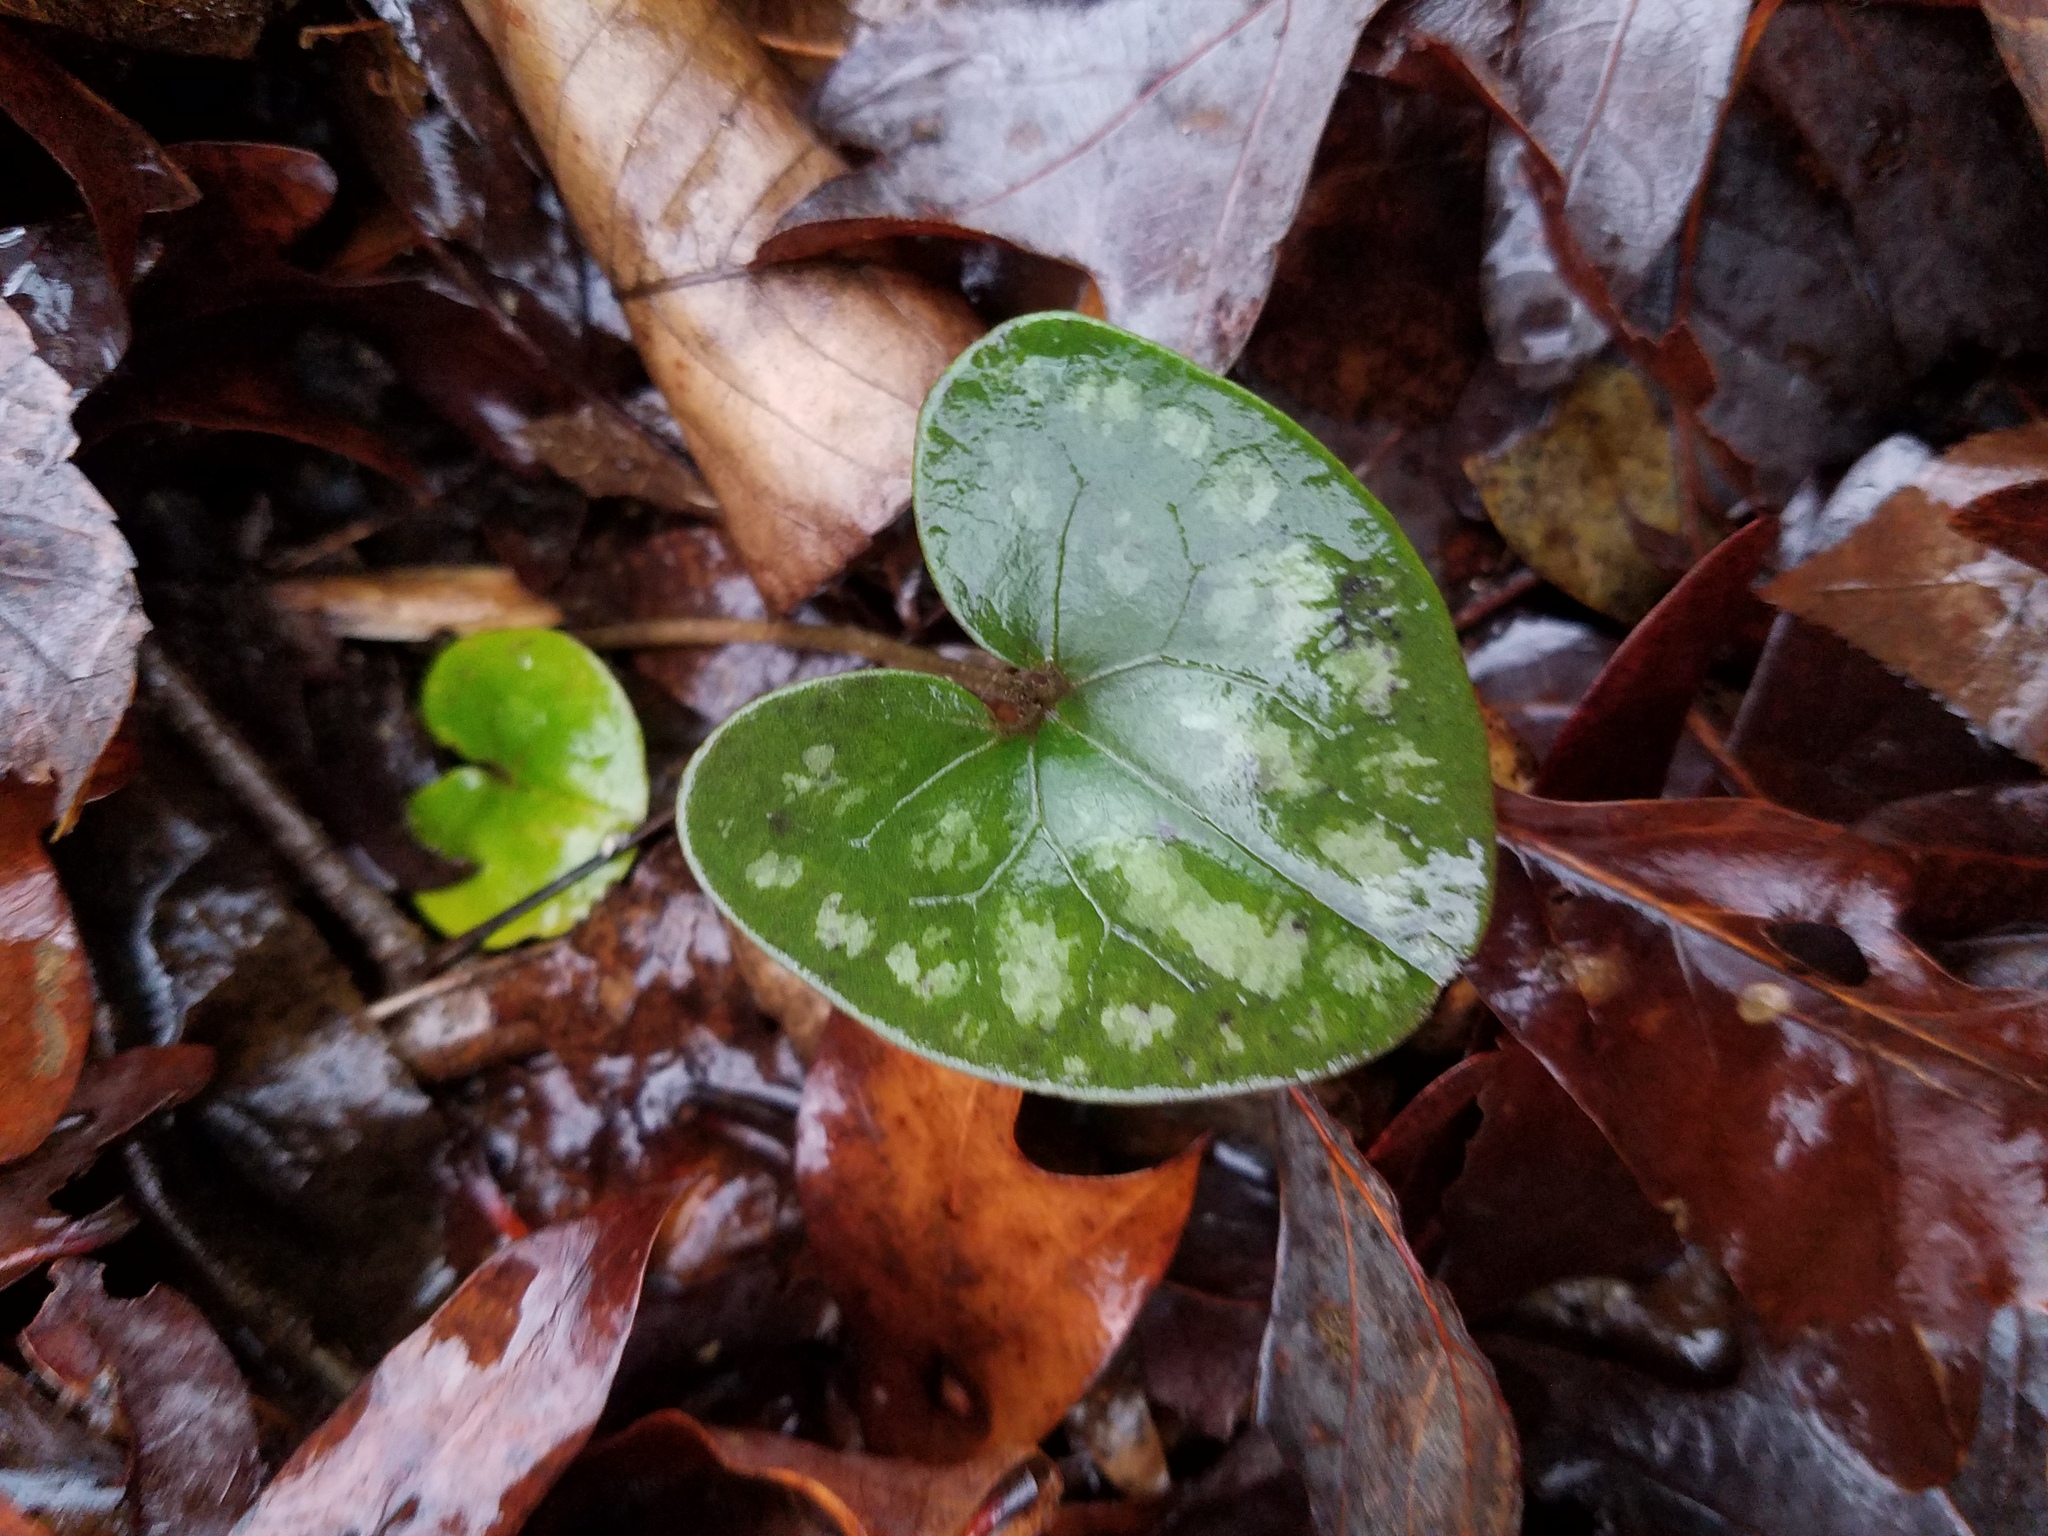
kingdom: Plantae
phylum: Tracheophyta
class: Magnoliopsida
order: Piperales
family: Aristolochiaceae
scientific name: Aristolochiaceae
